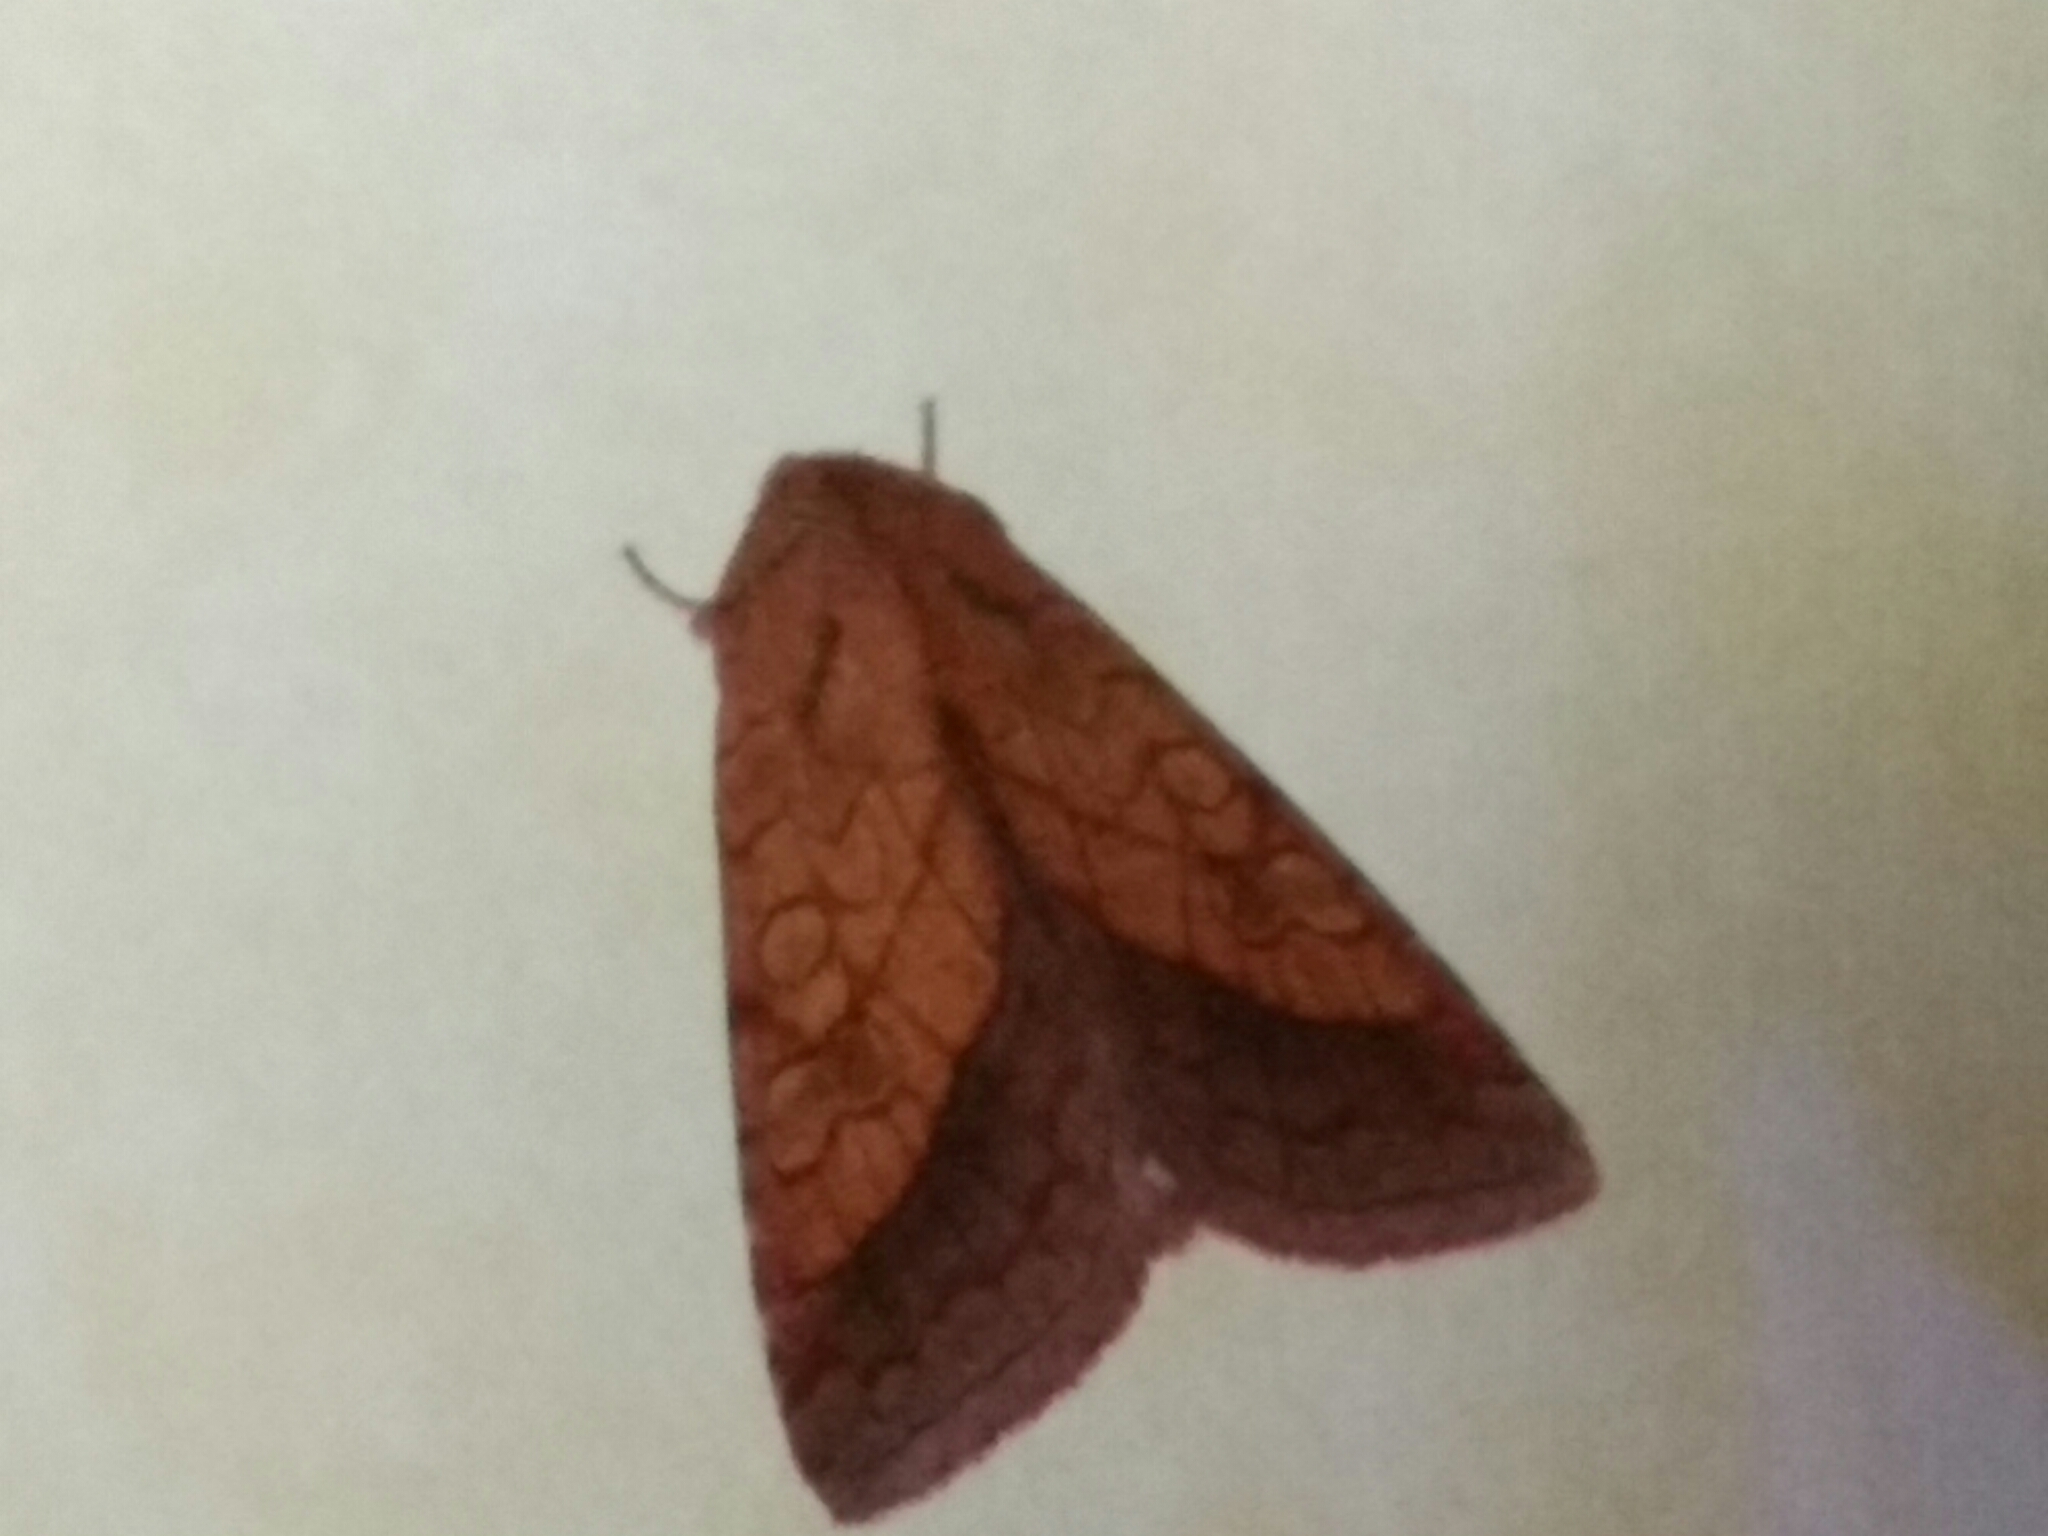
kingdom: Animalia
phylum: Arthropoda
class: Insecta
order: Lepidoptera
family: Noctuidae
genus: Pyrrhia
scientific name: Pyrrhia umbra
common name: Bordered sallow
